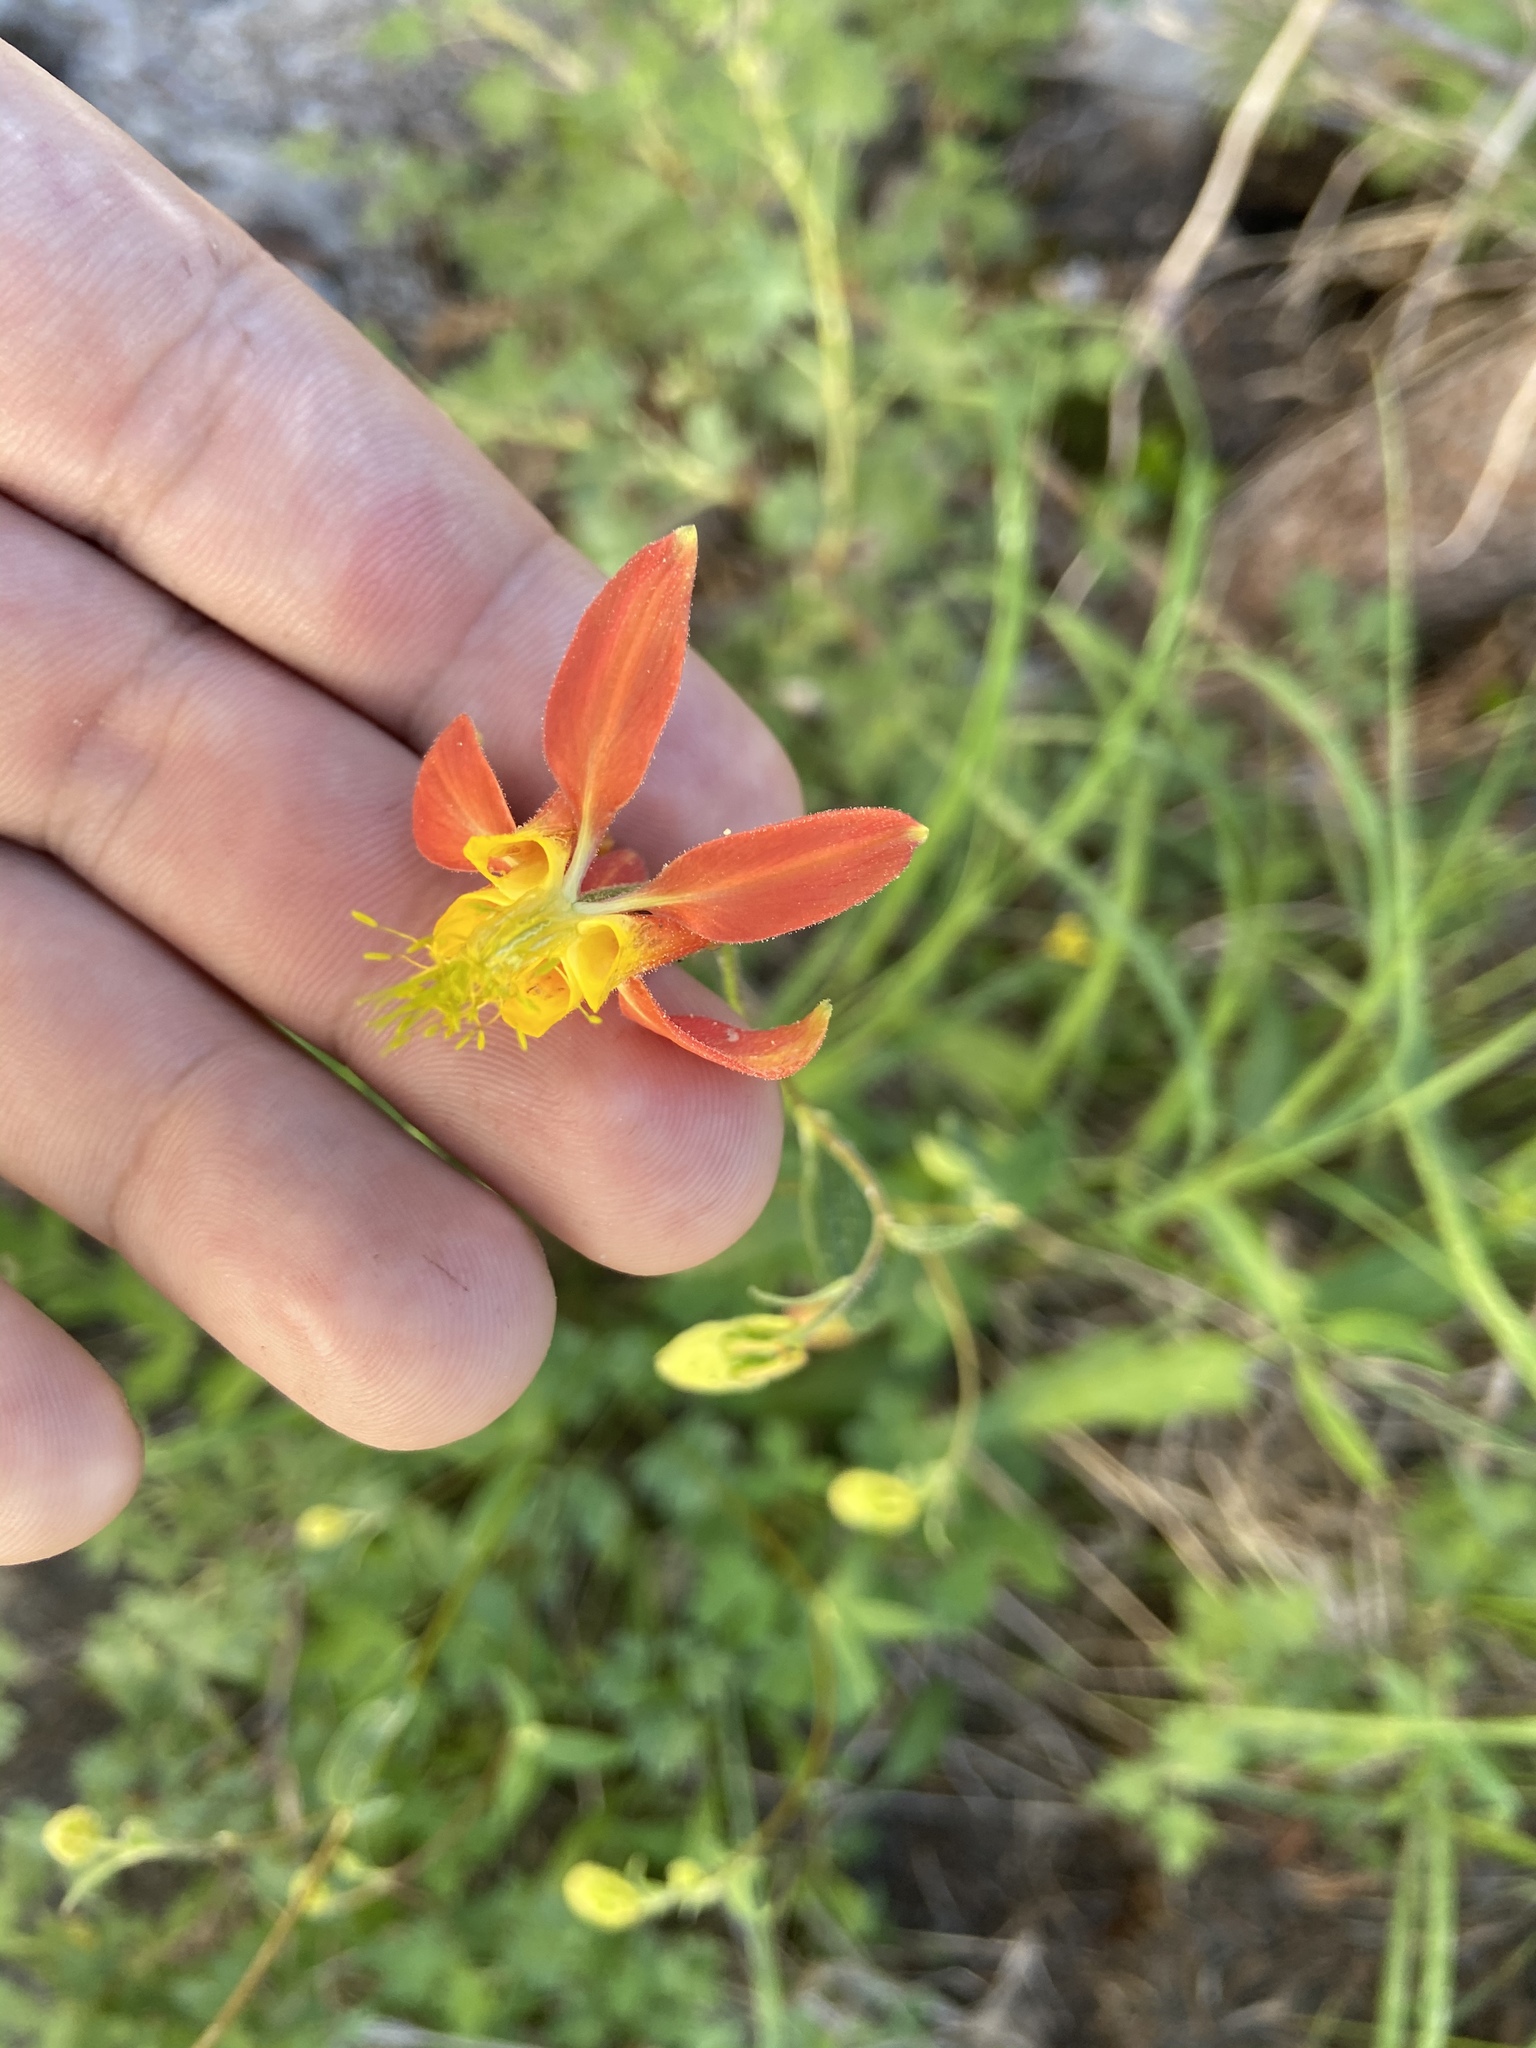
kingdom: Plantae
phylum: Tracheophyta
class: Magnoliopsida
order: Ranunculales
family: Ranunculaceae
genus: Aquilegia
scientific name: Aquilegia formosa
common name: Sitka columbine
